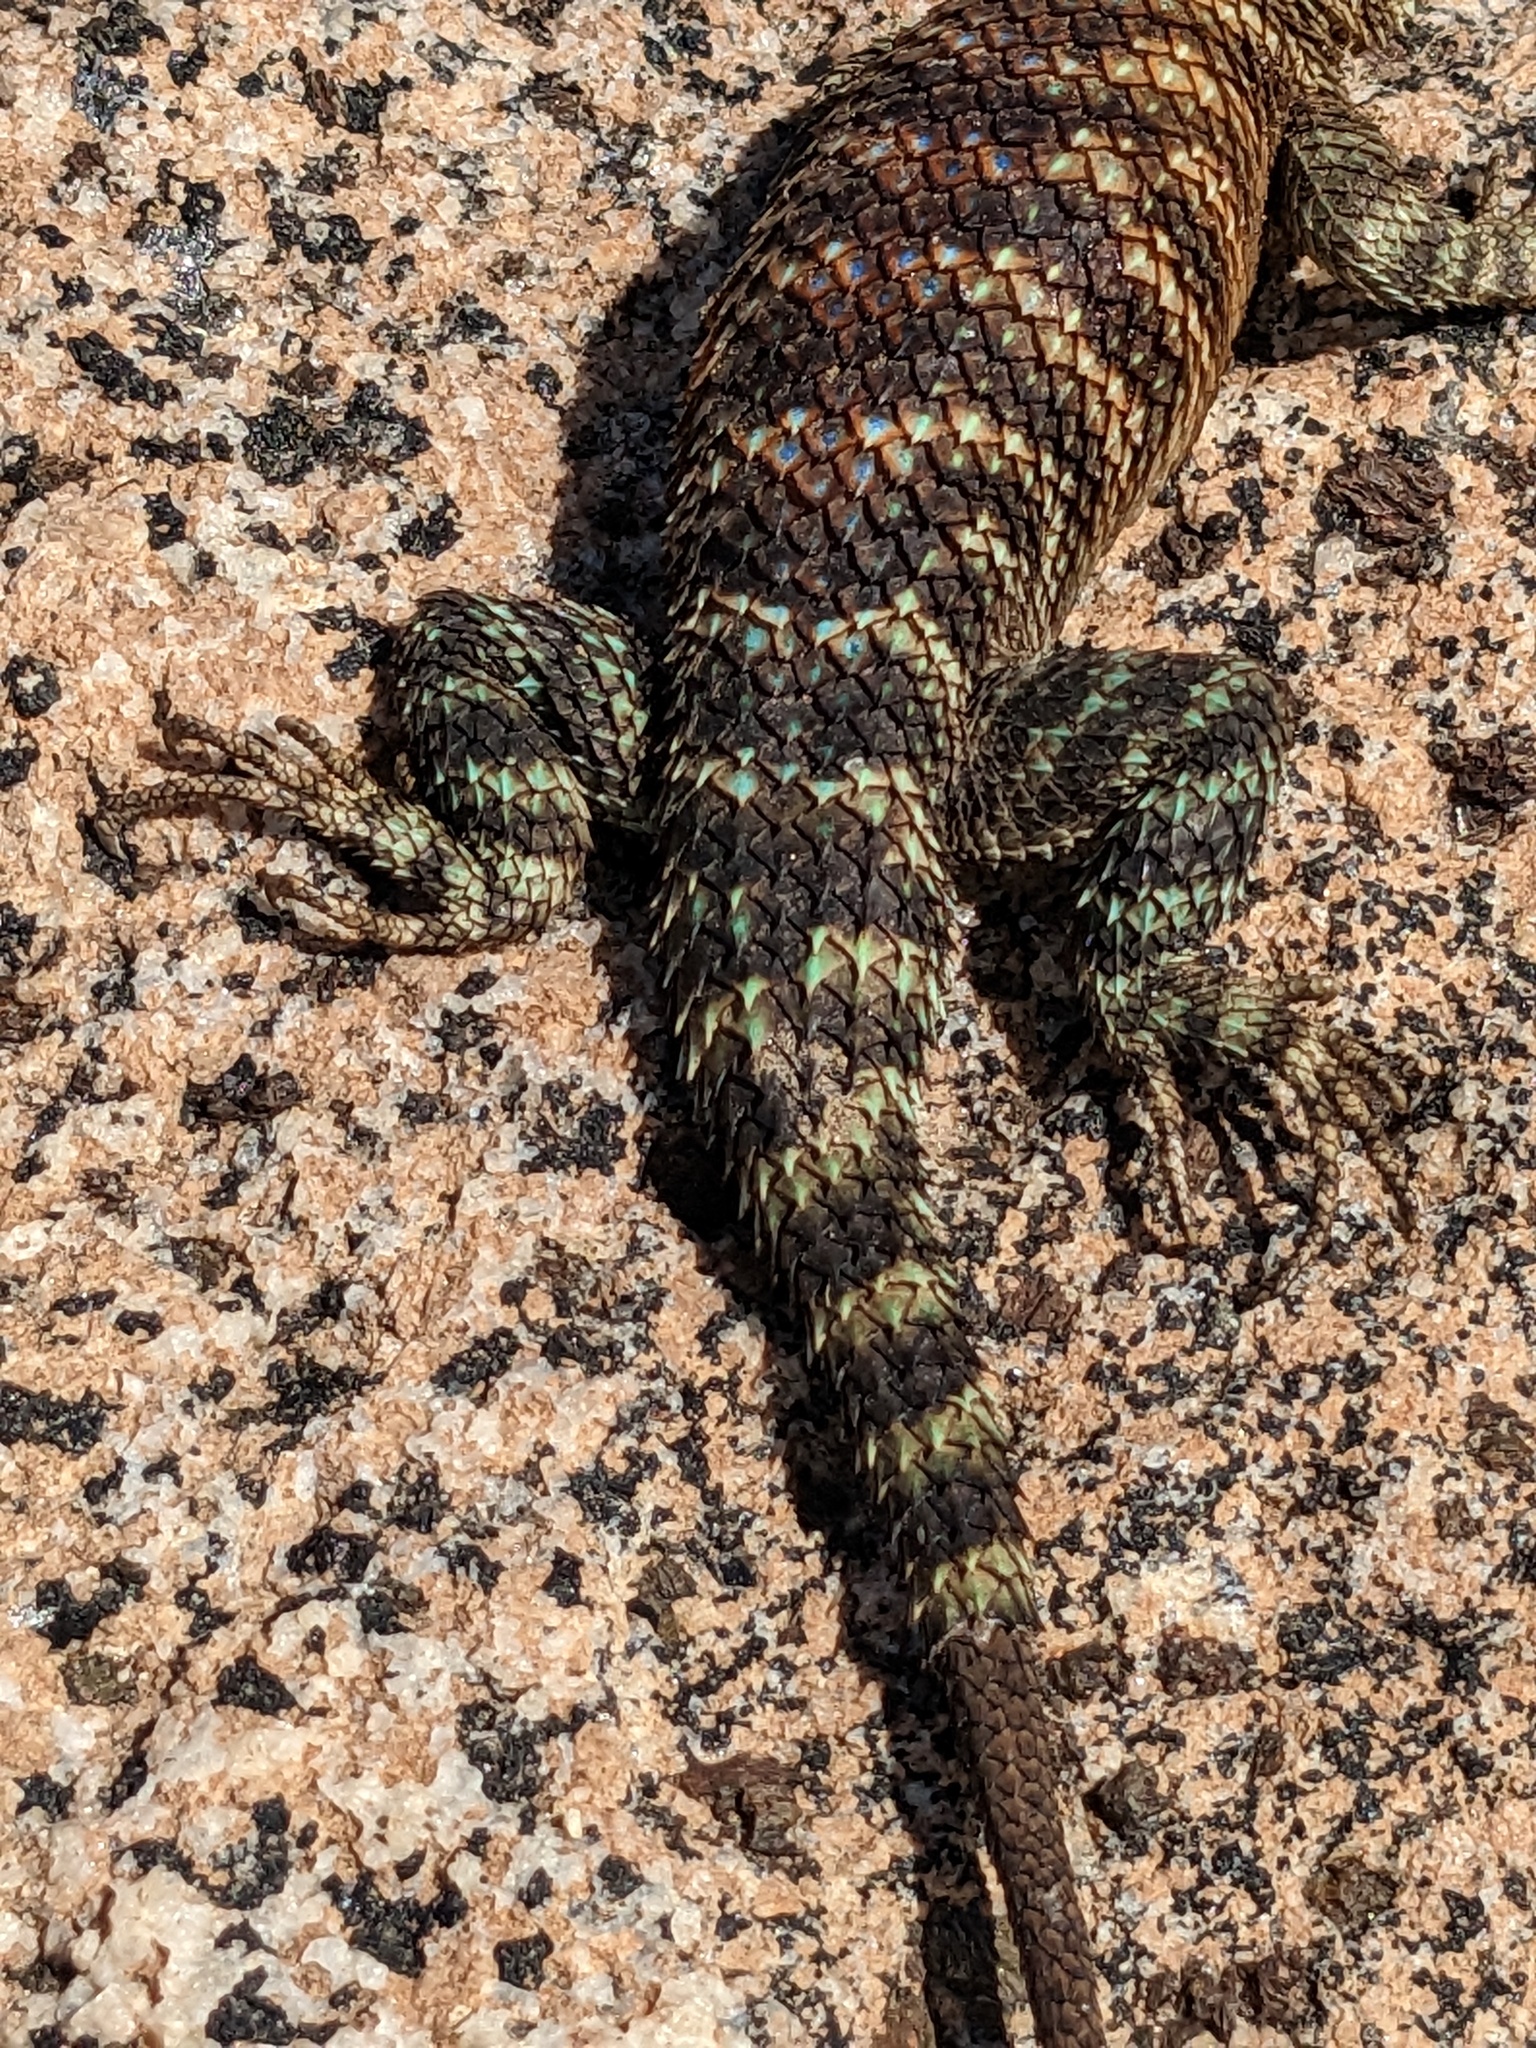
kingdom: Animalia
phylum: Chordata
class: Squamata
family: Phrynosomatidae
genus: Sceloporus
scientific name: Sceloporus orcutti
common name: Granite spiny lizard
